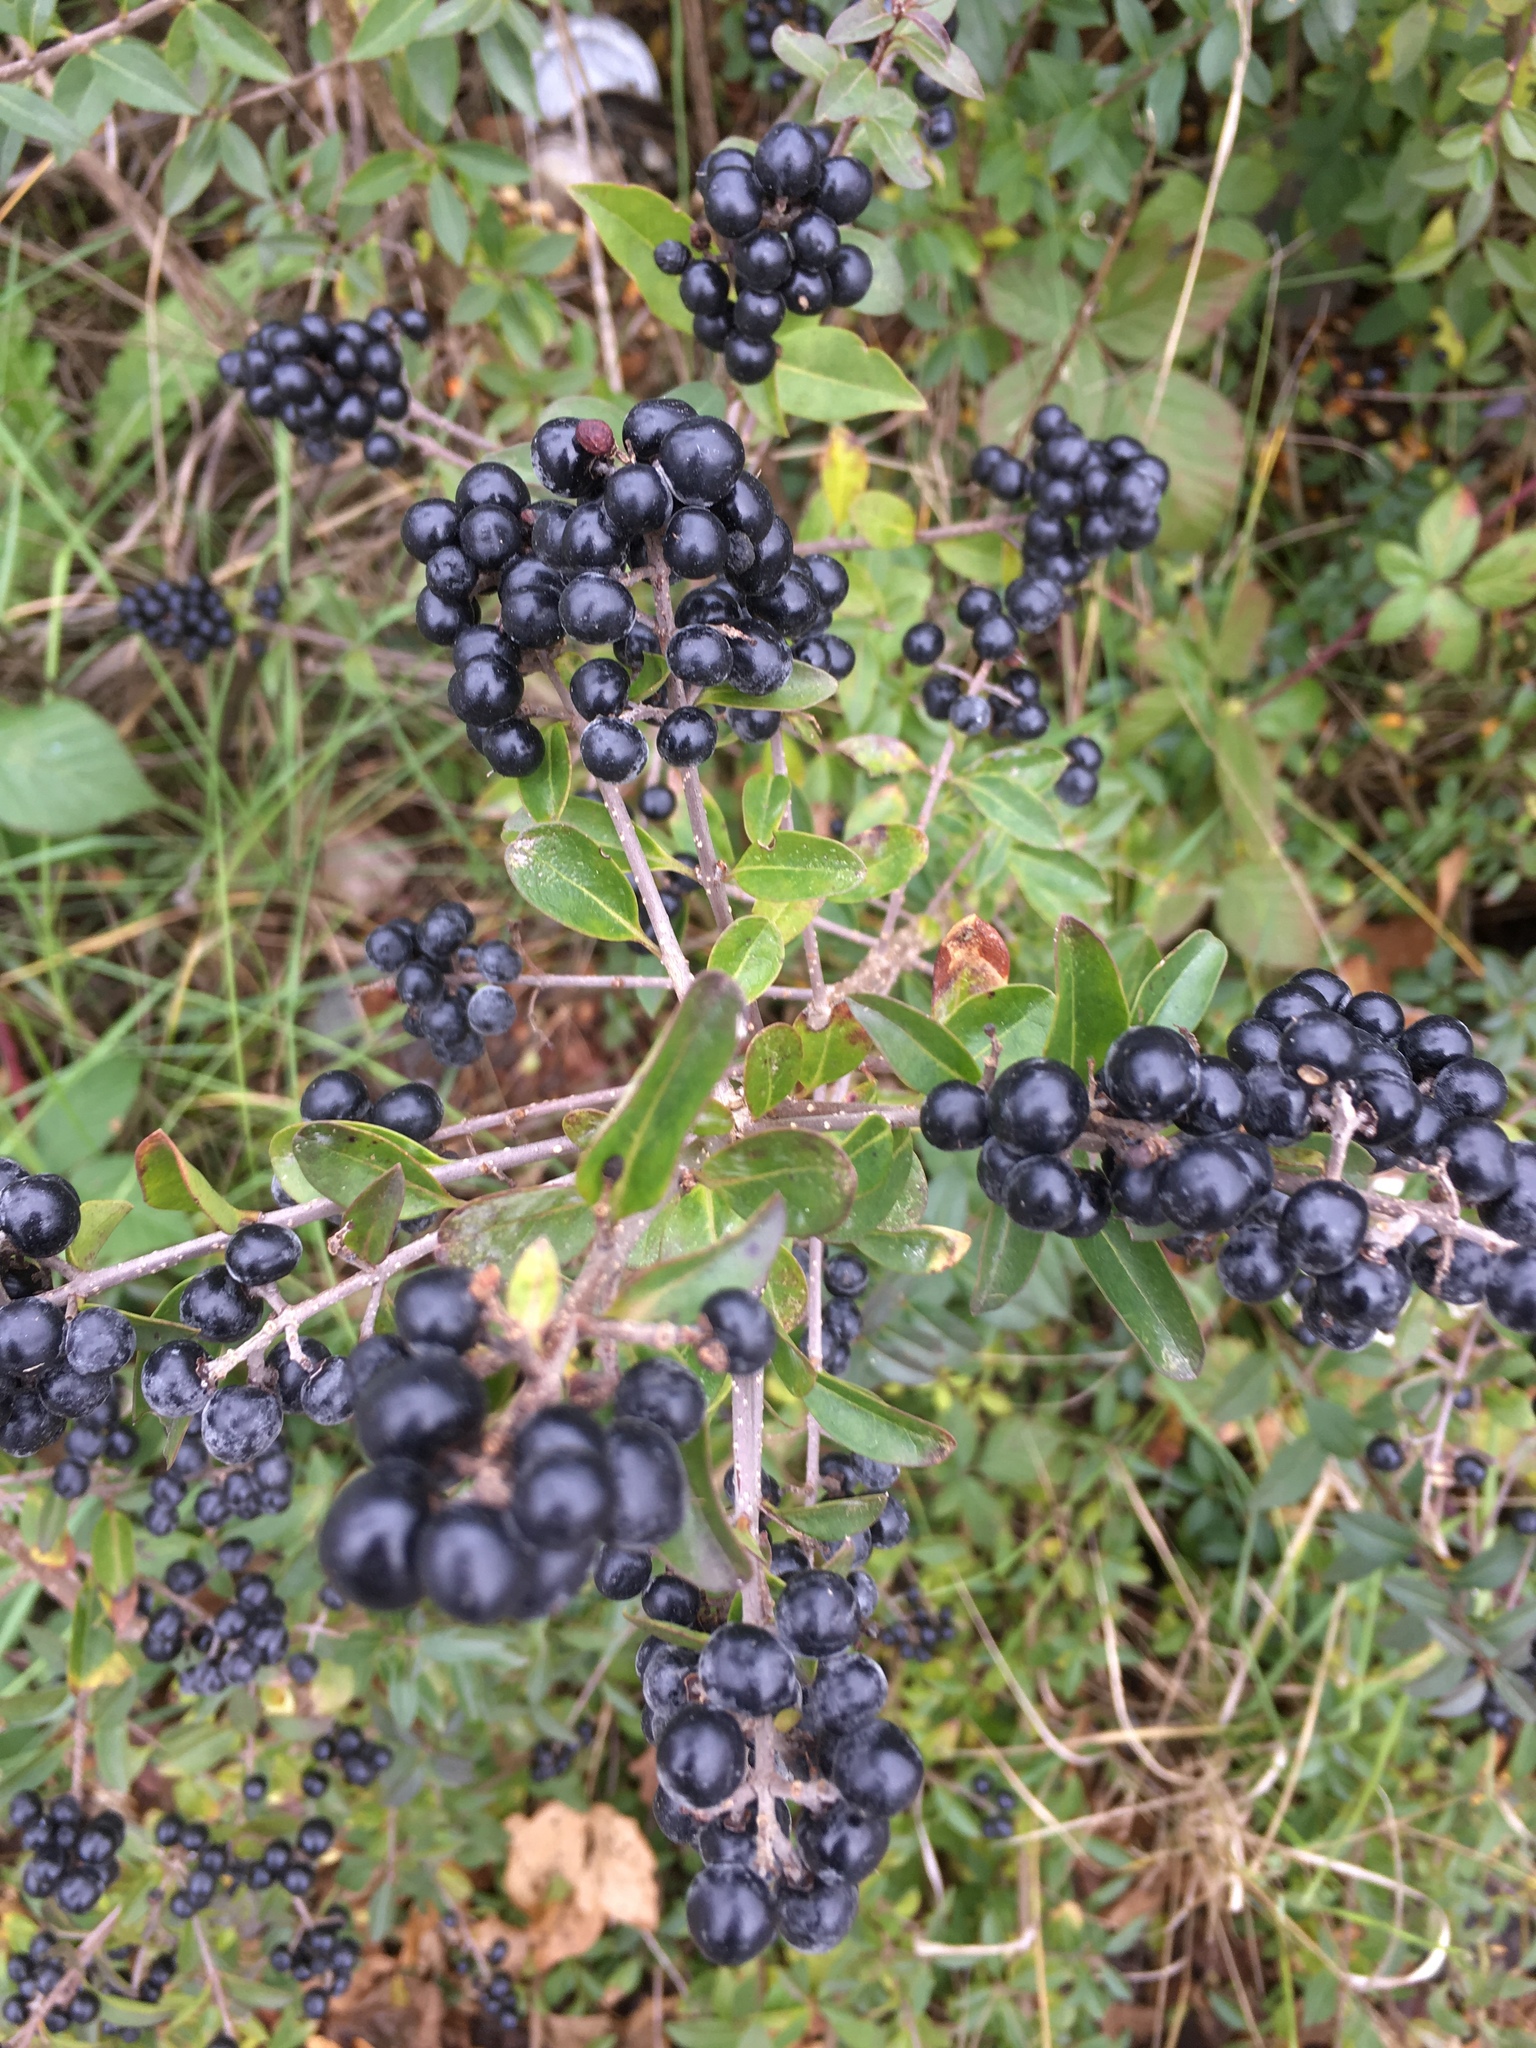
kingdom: Plantae
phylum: Tracheophyta
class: Magnoliopsida
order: Lamiales
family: Oleaceae
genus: Ligustrum
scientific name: Ligustrum vulgare
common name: Wild privet
